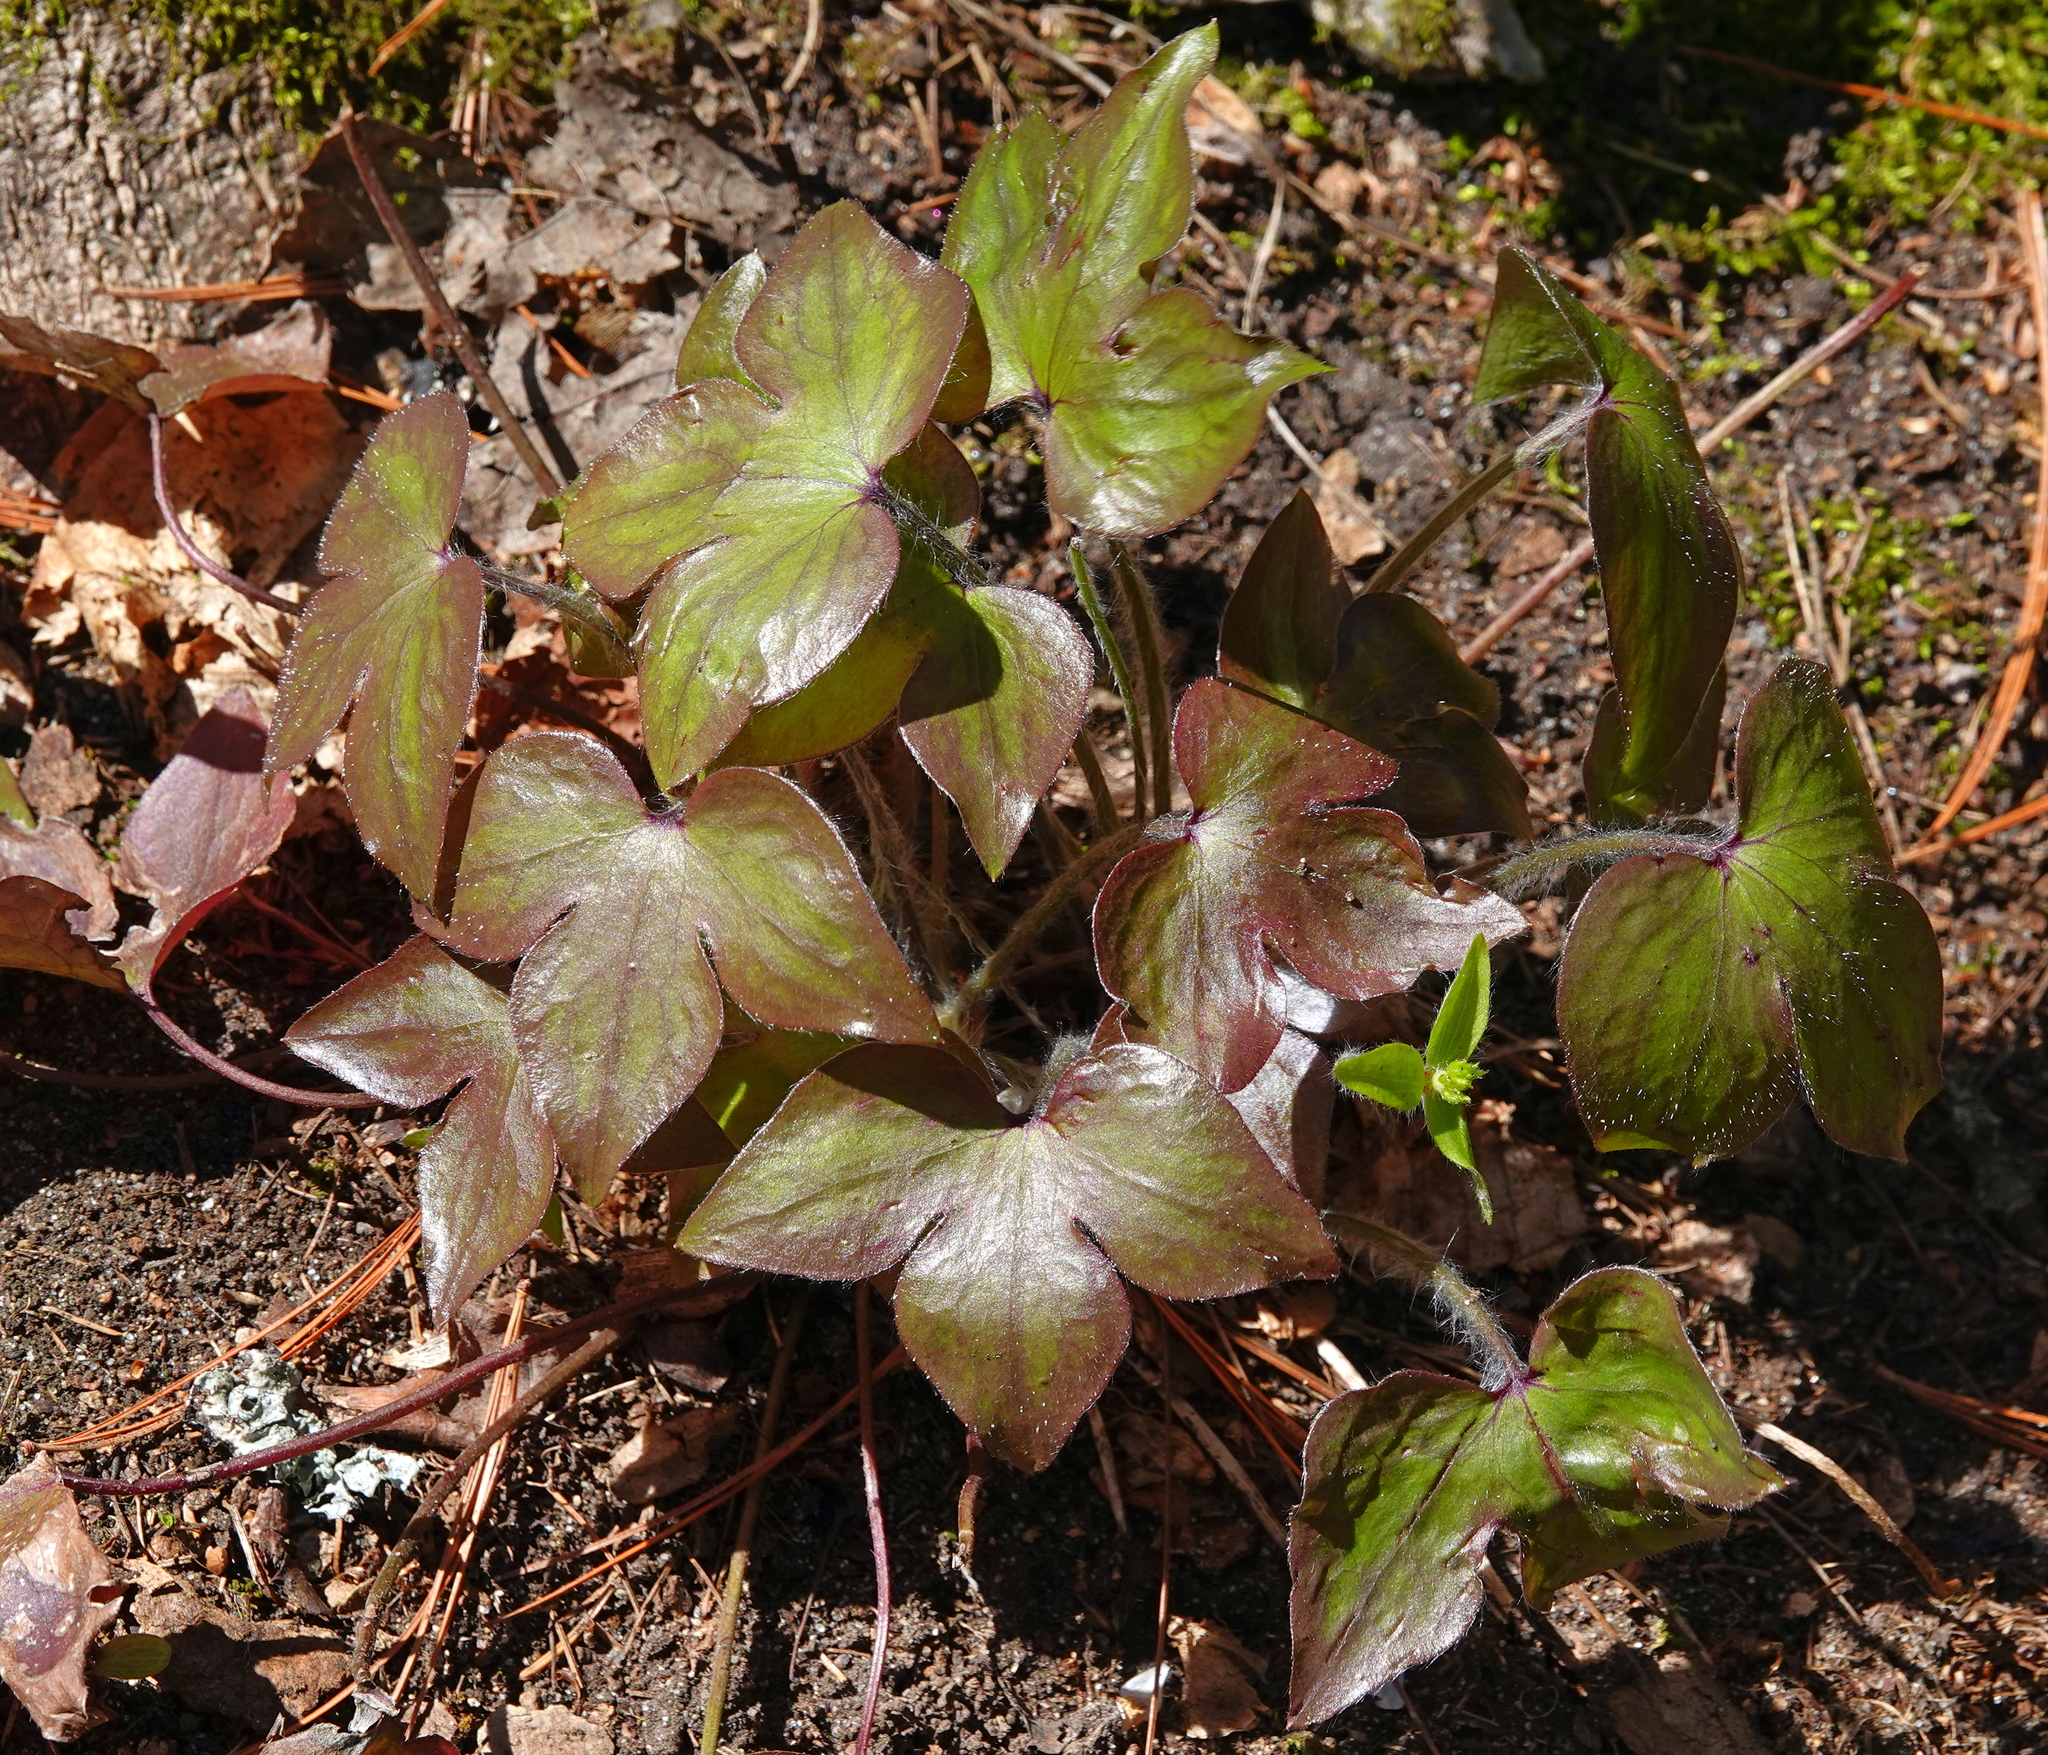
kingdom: Plantae
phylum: Tracheophyta
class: Magnoliopsida
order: Ranunculales
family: Ranunculaceae
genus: Hepatica
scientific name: Hepatica acutiloba
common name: Sharp-lobed hepatica
